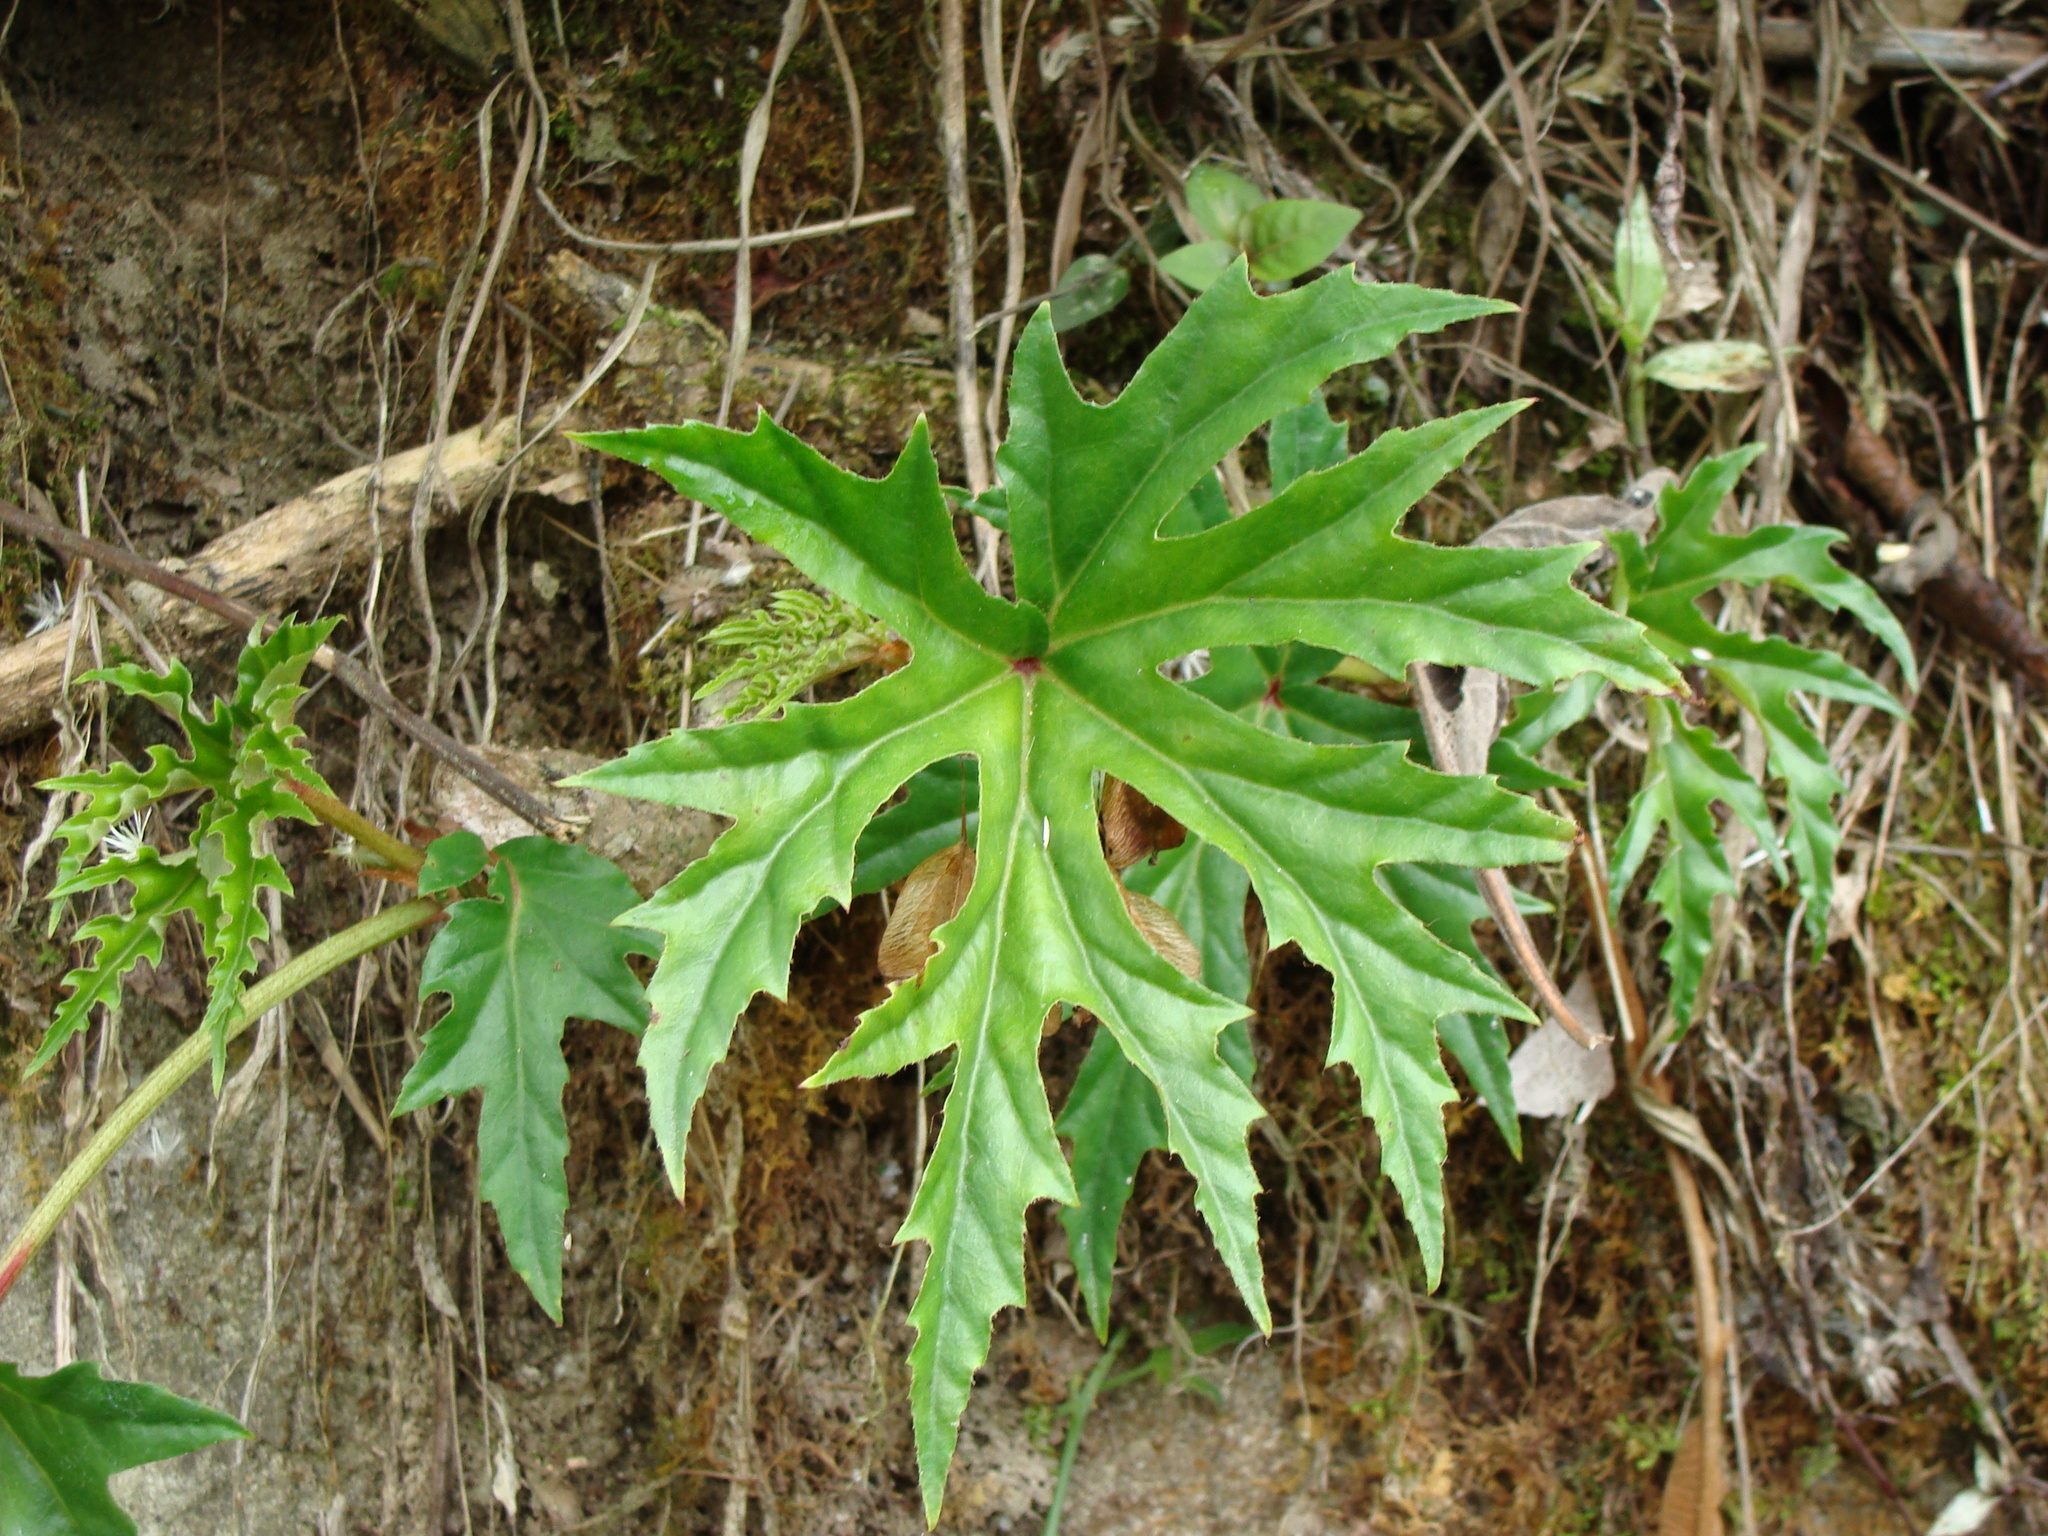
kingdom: Plantae
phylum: Tracheophyta
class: Magnoliopsida
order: Cucurbitales
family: Begoniaceae
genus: Begonia
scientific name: Begonia philodendroides
